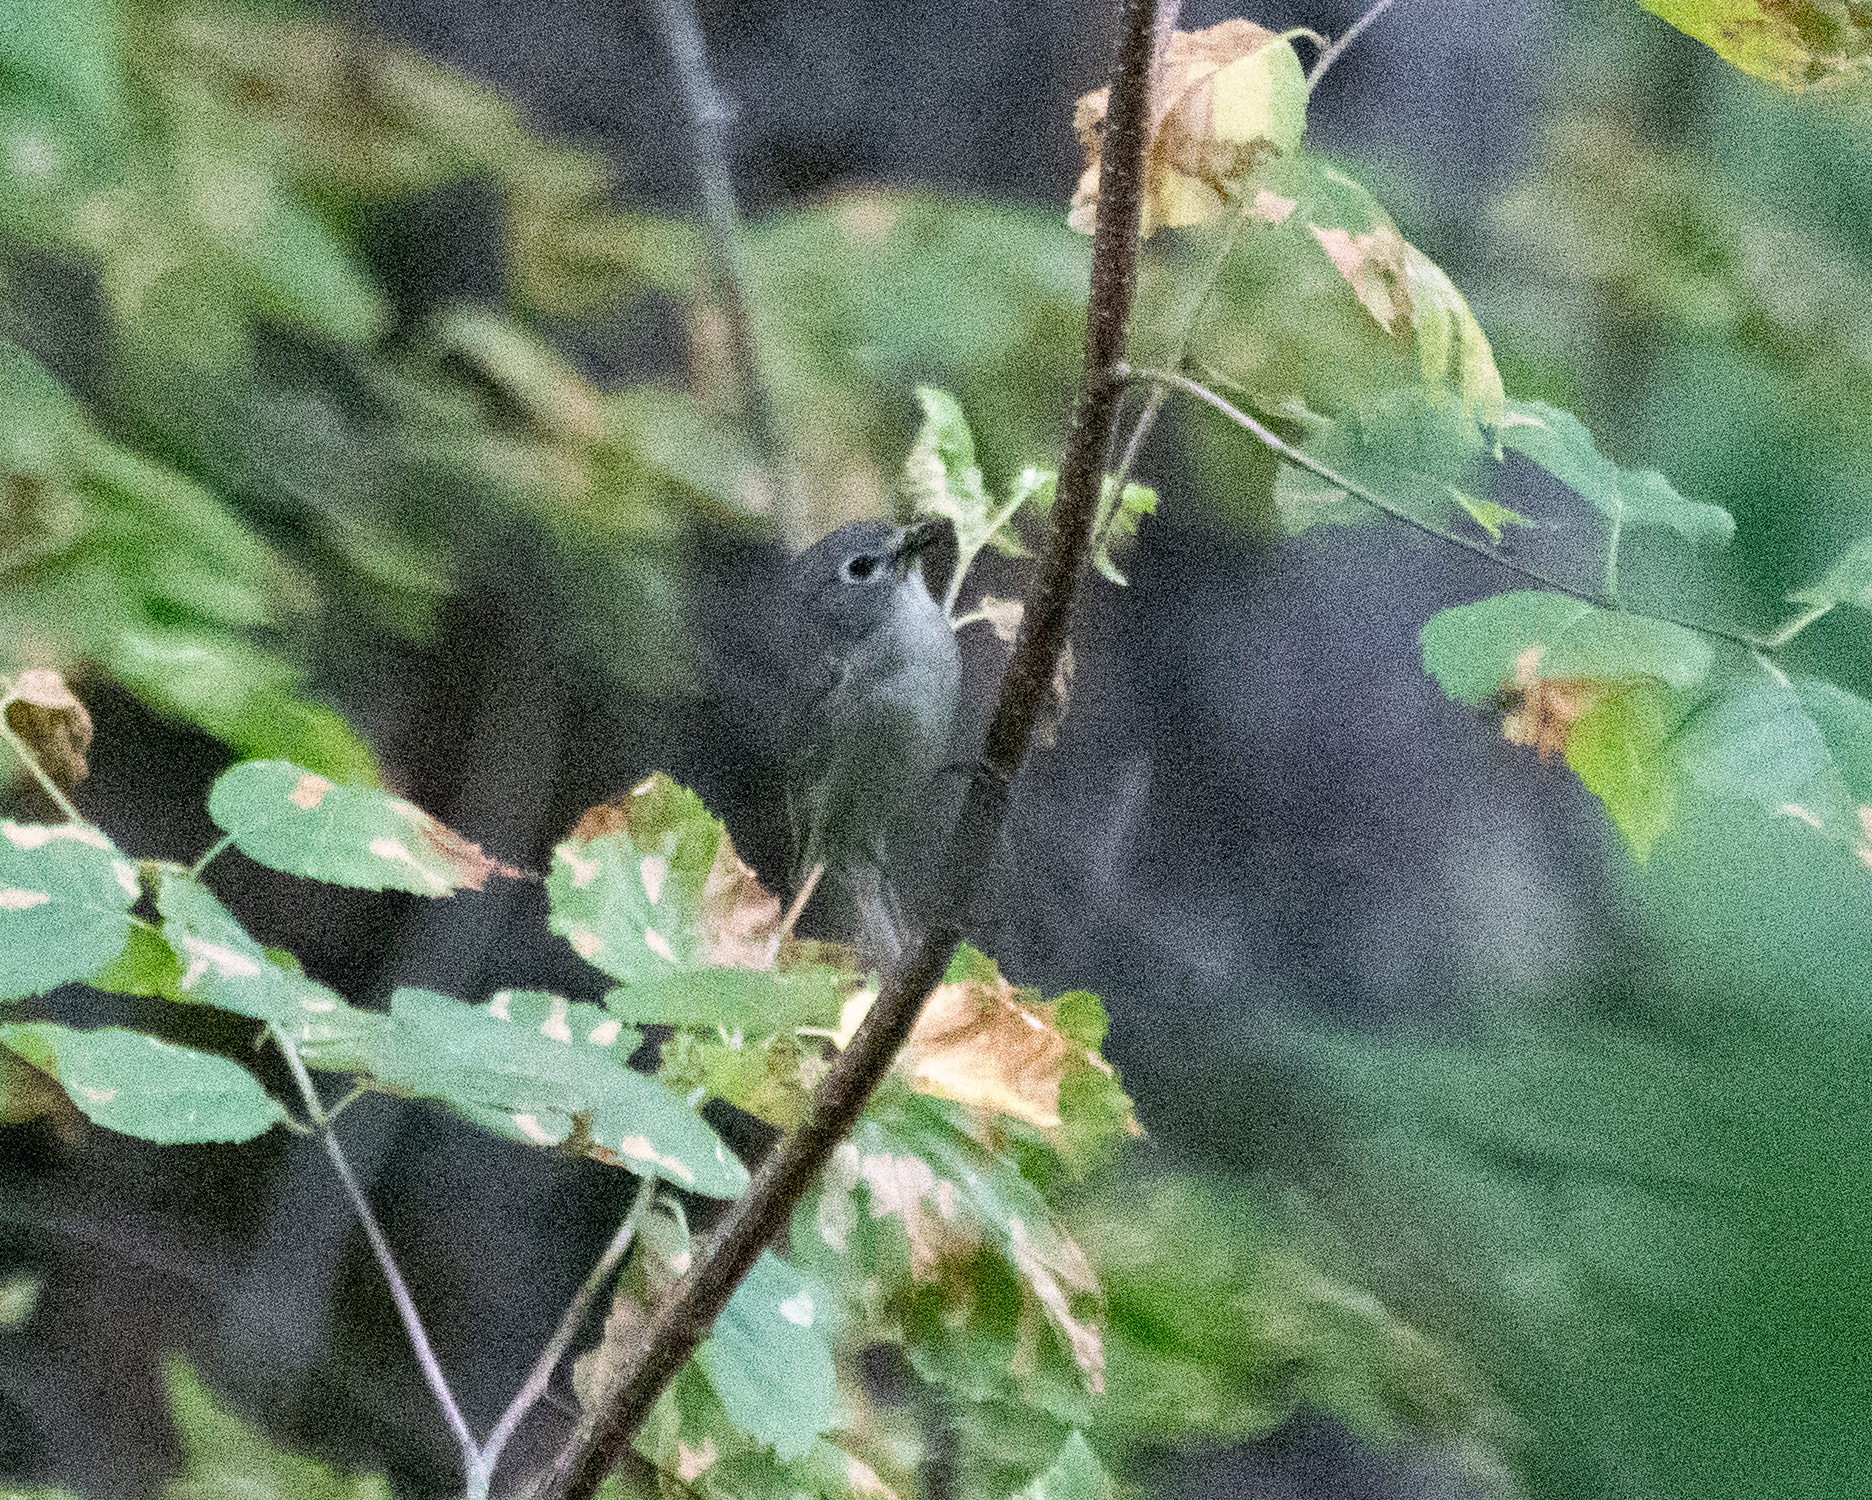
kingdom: Animalia
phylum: Chordata
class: Aves
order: Passeriformes
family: Vireonidae
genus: Vireo
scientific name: Vireo cassinii
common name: Cassin's vireo
